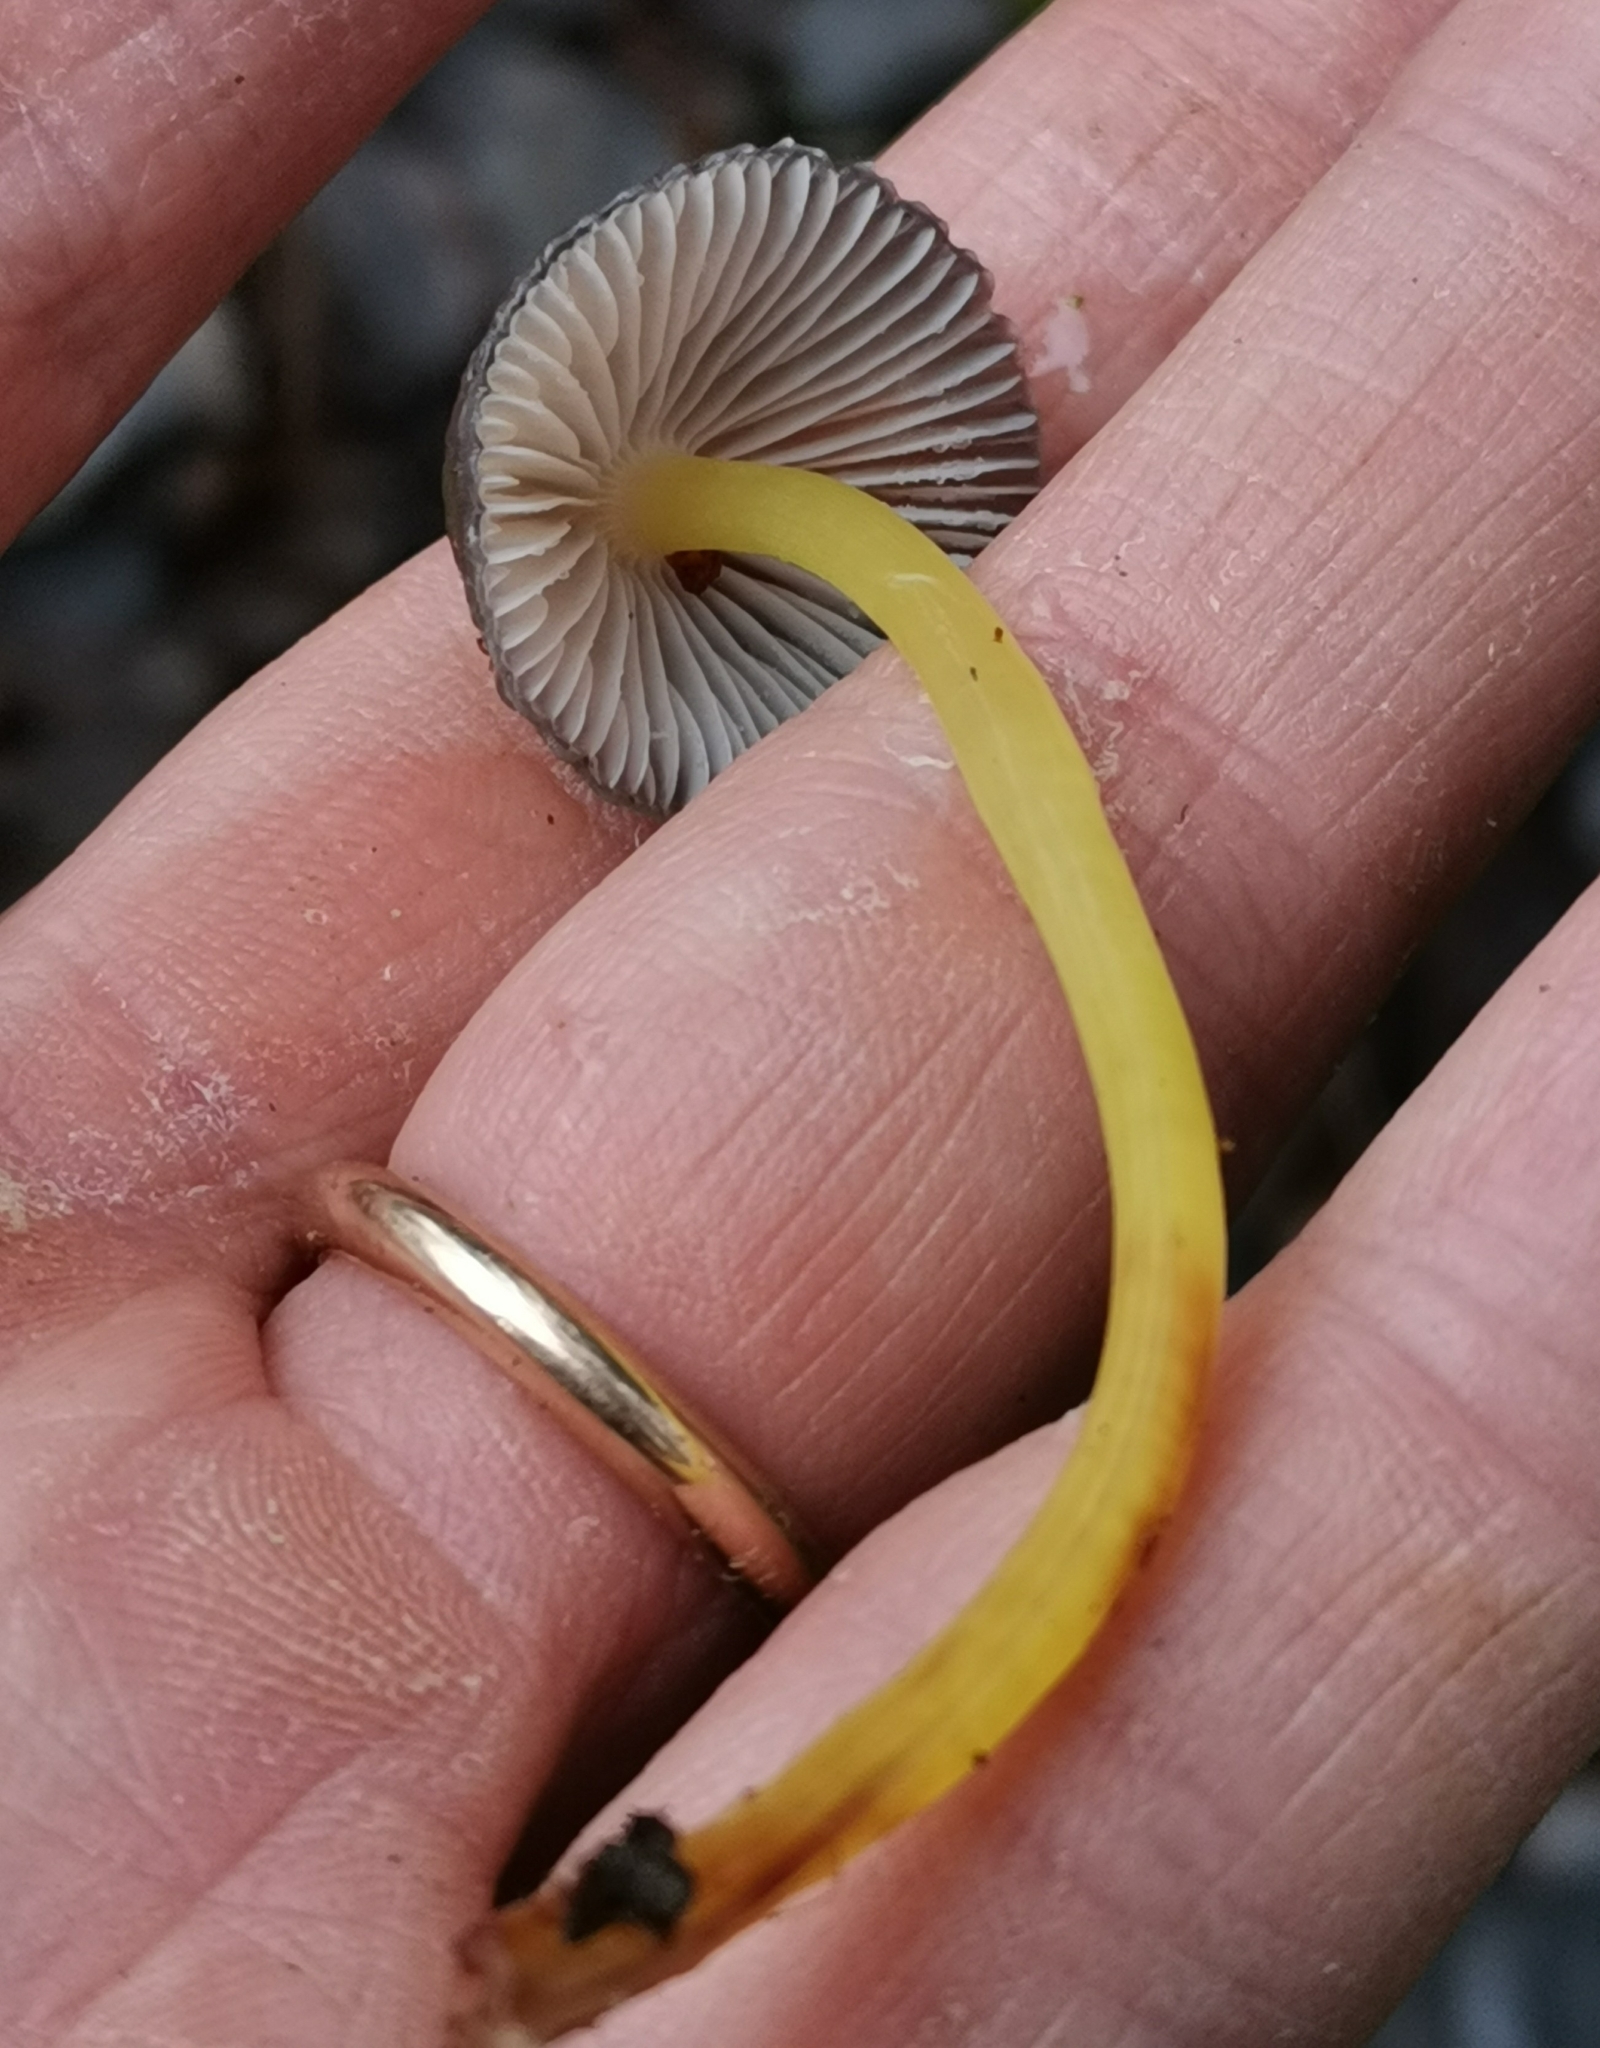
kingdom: Fungi
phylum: Basidiomycota
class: Agaricomycetes
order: Agaricales
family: Mycenaceae
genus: Mycena
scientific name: Mycena epipterygia
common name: Yellowleg bonnet
